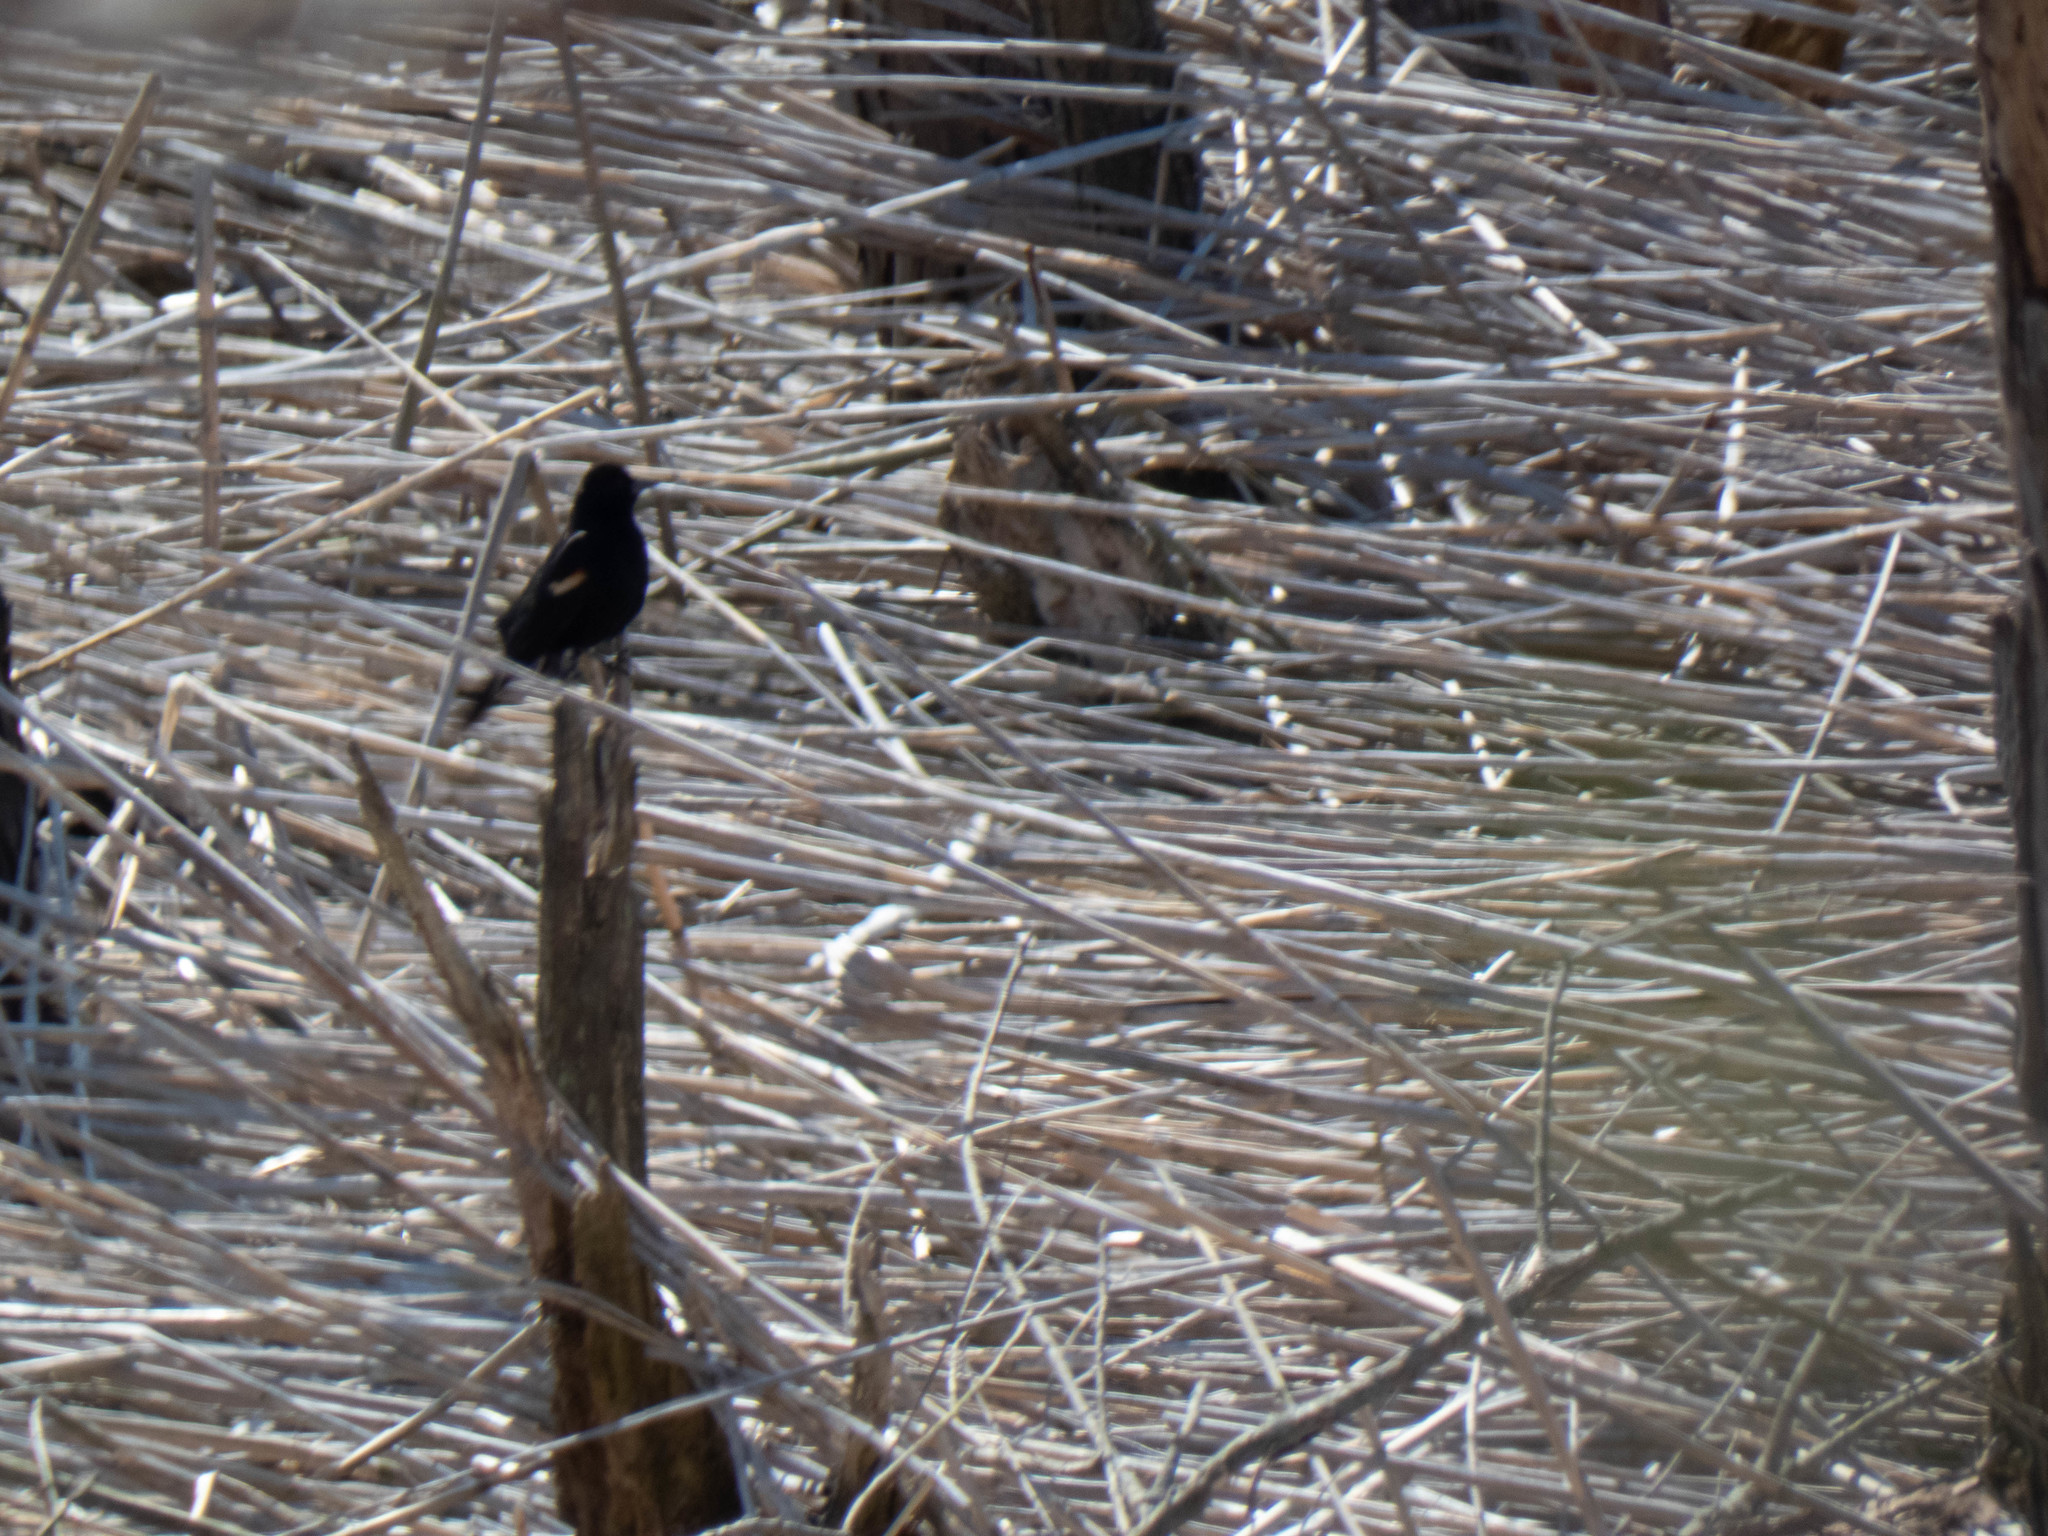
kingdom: Animalia
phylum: Chordata
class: Aves
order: Passeriformes
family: Icteridae
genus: Agelaius
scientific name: Agelaius phoeniceus
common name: Red-winged blackbird
